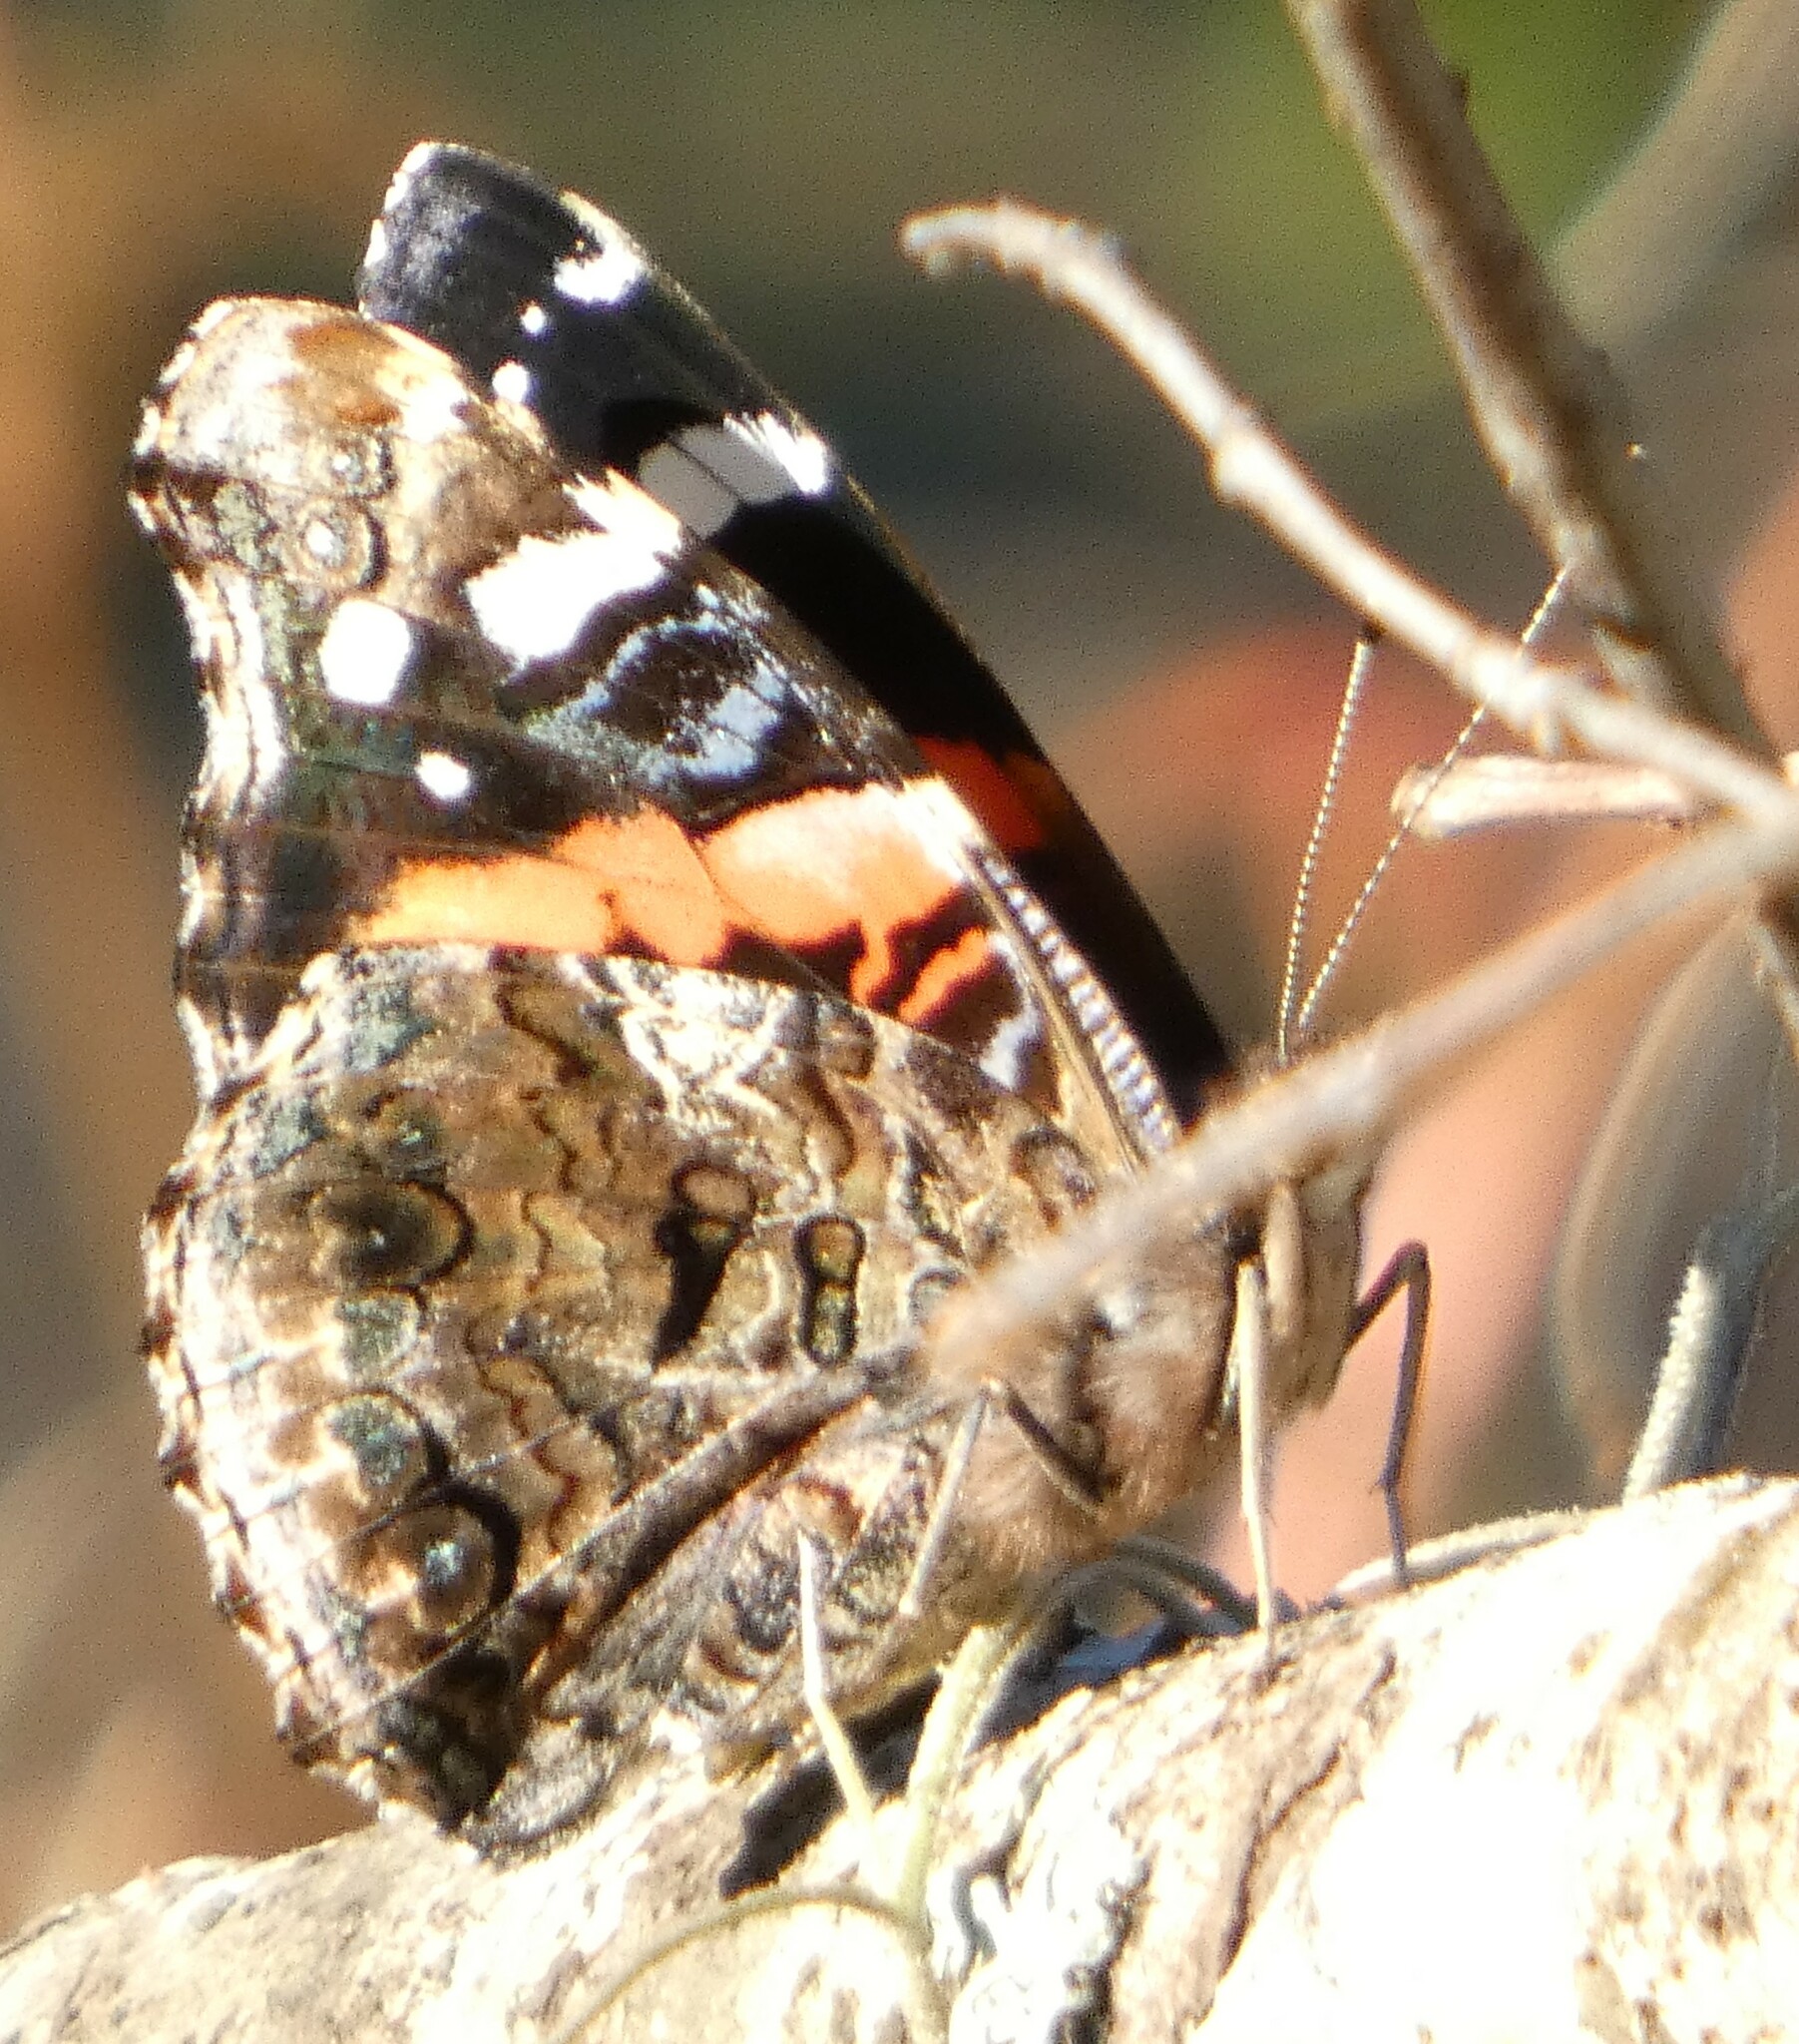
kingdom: Animalia
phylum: Arthropoda
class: Insecta
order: Lepidoptera
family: Nymphalidae
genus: Vanessa
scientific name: Vanessa atalanta
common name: Red admiral
